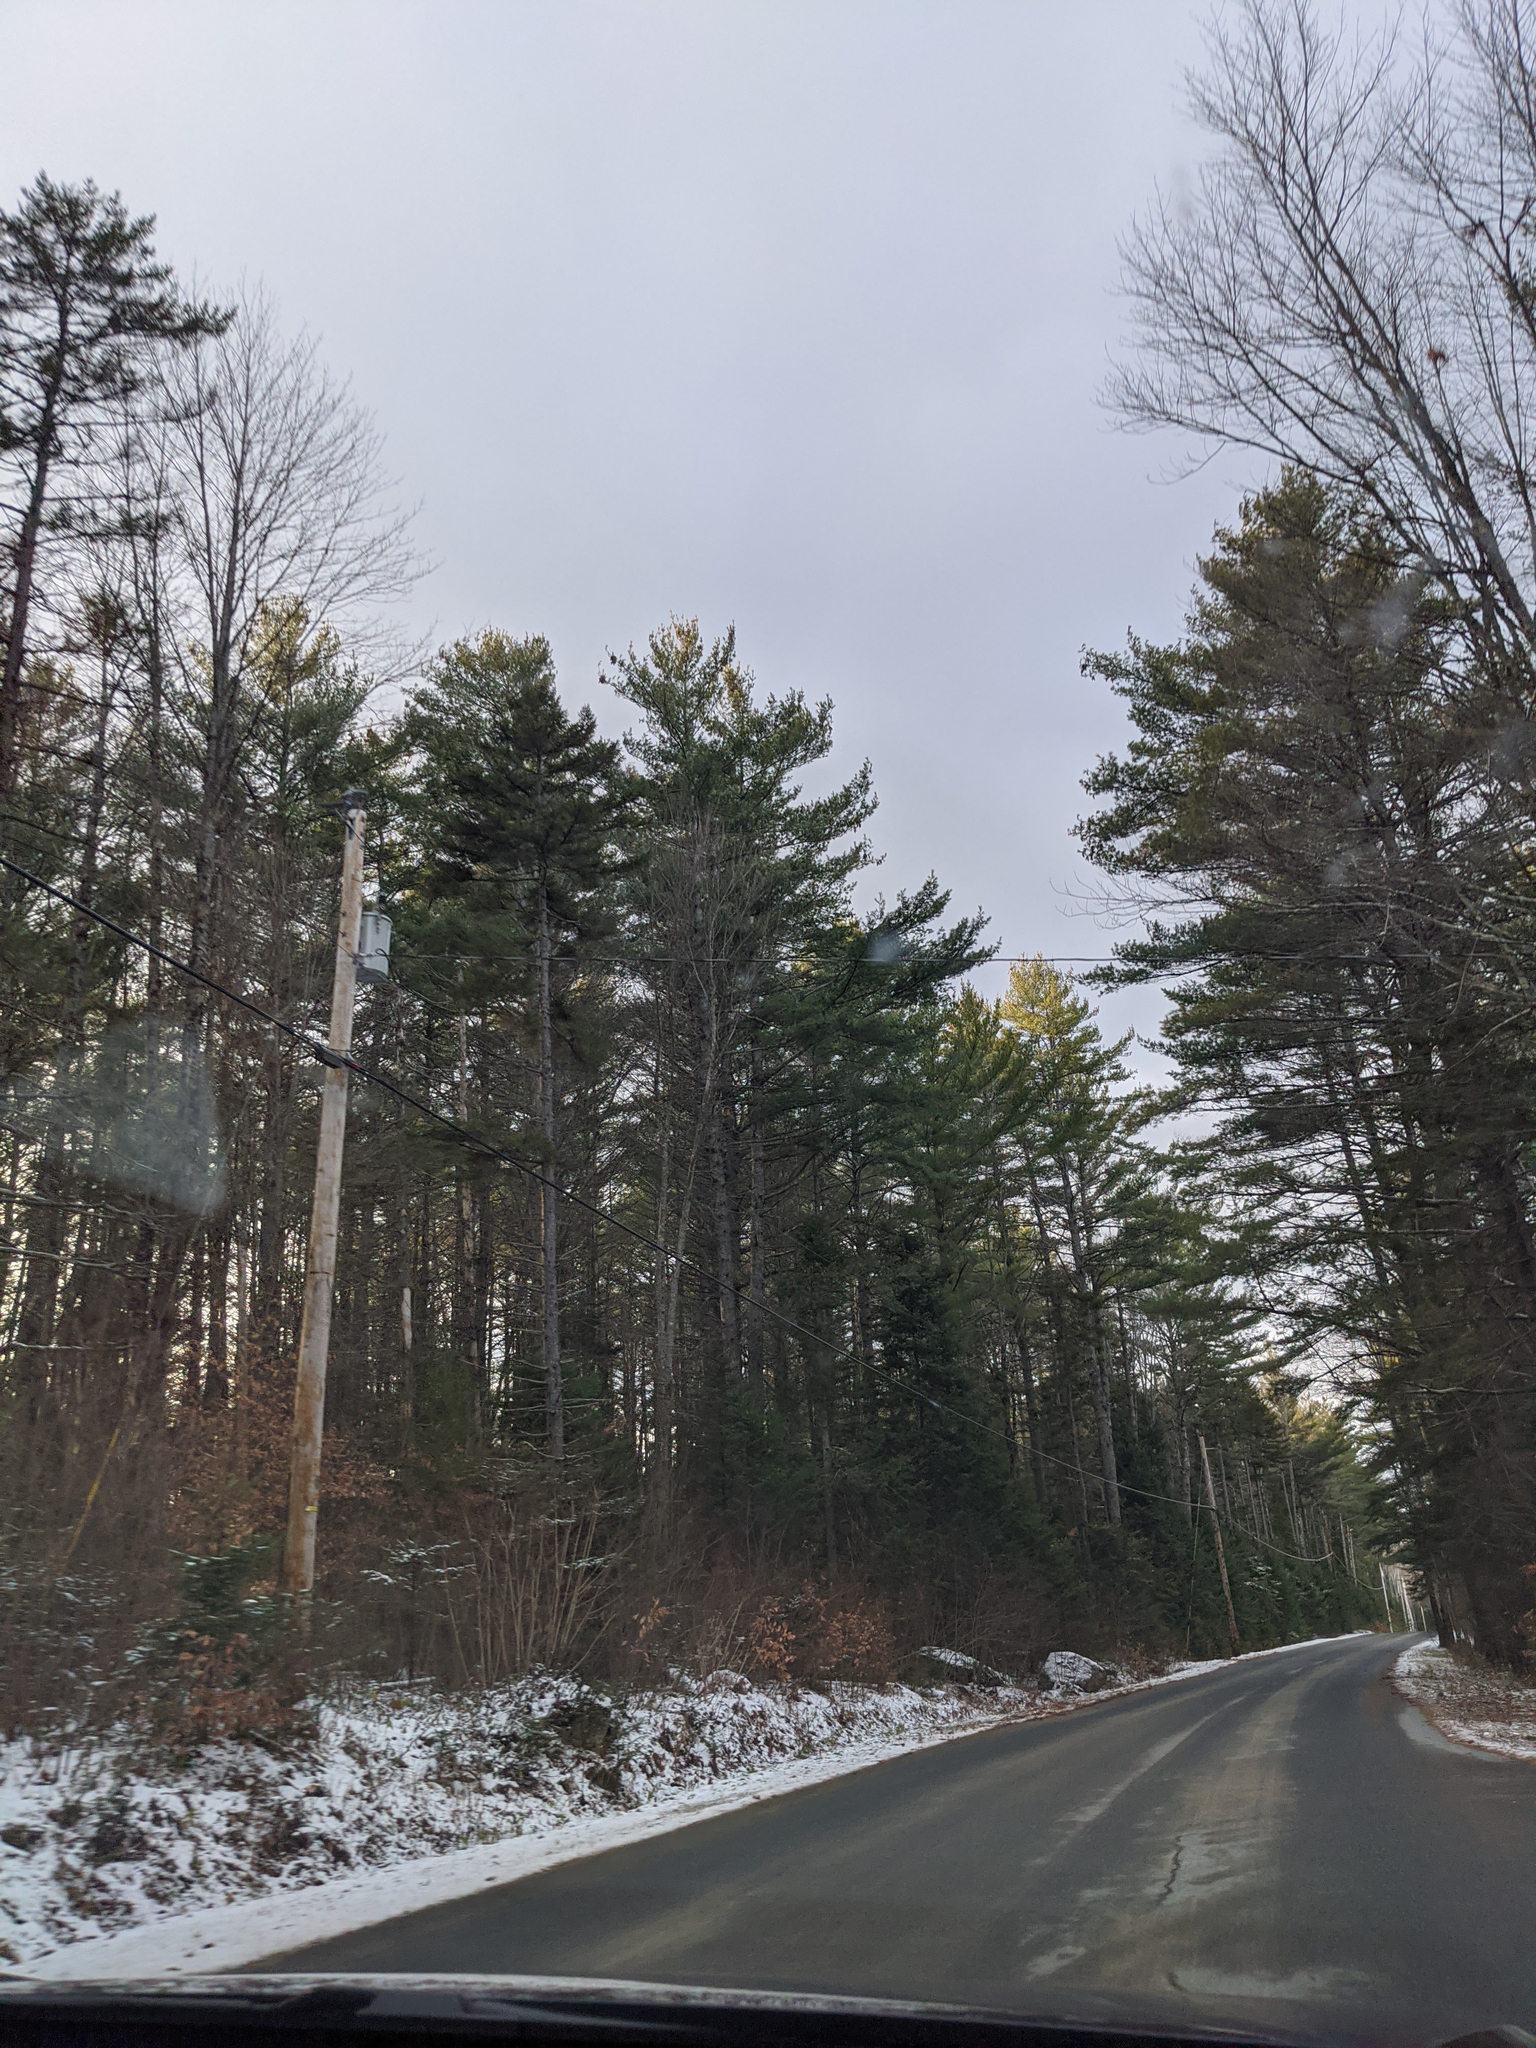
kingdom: Plantae
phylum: Tracheophyta
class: Pinopsida
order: Pinales
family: Pinaceae
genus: Pinus
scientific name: Pinus strobus
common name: Weymouth pine
